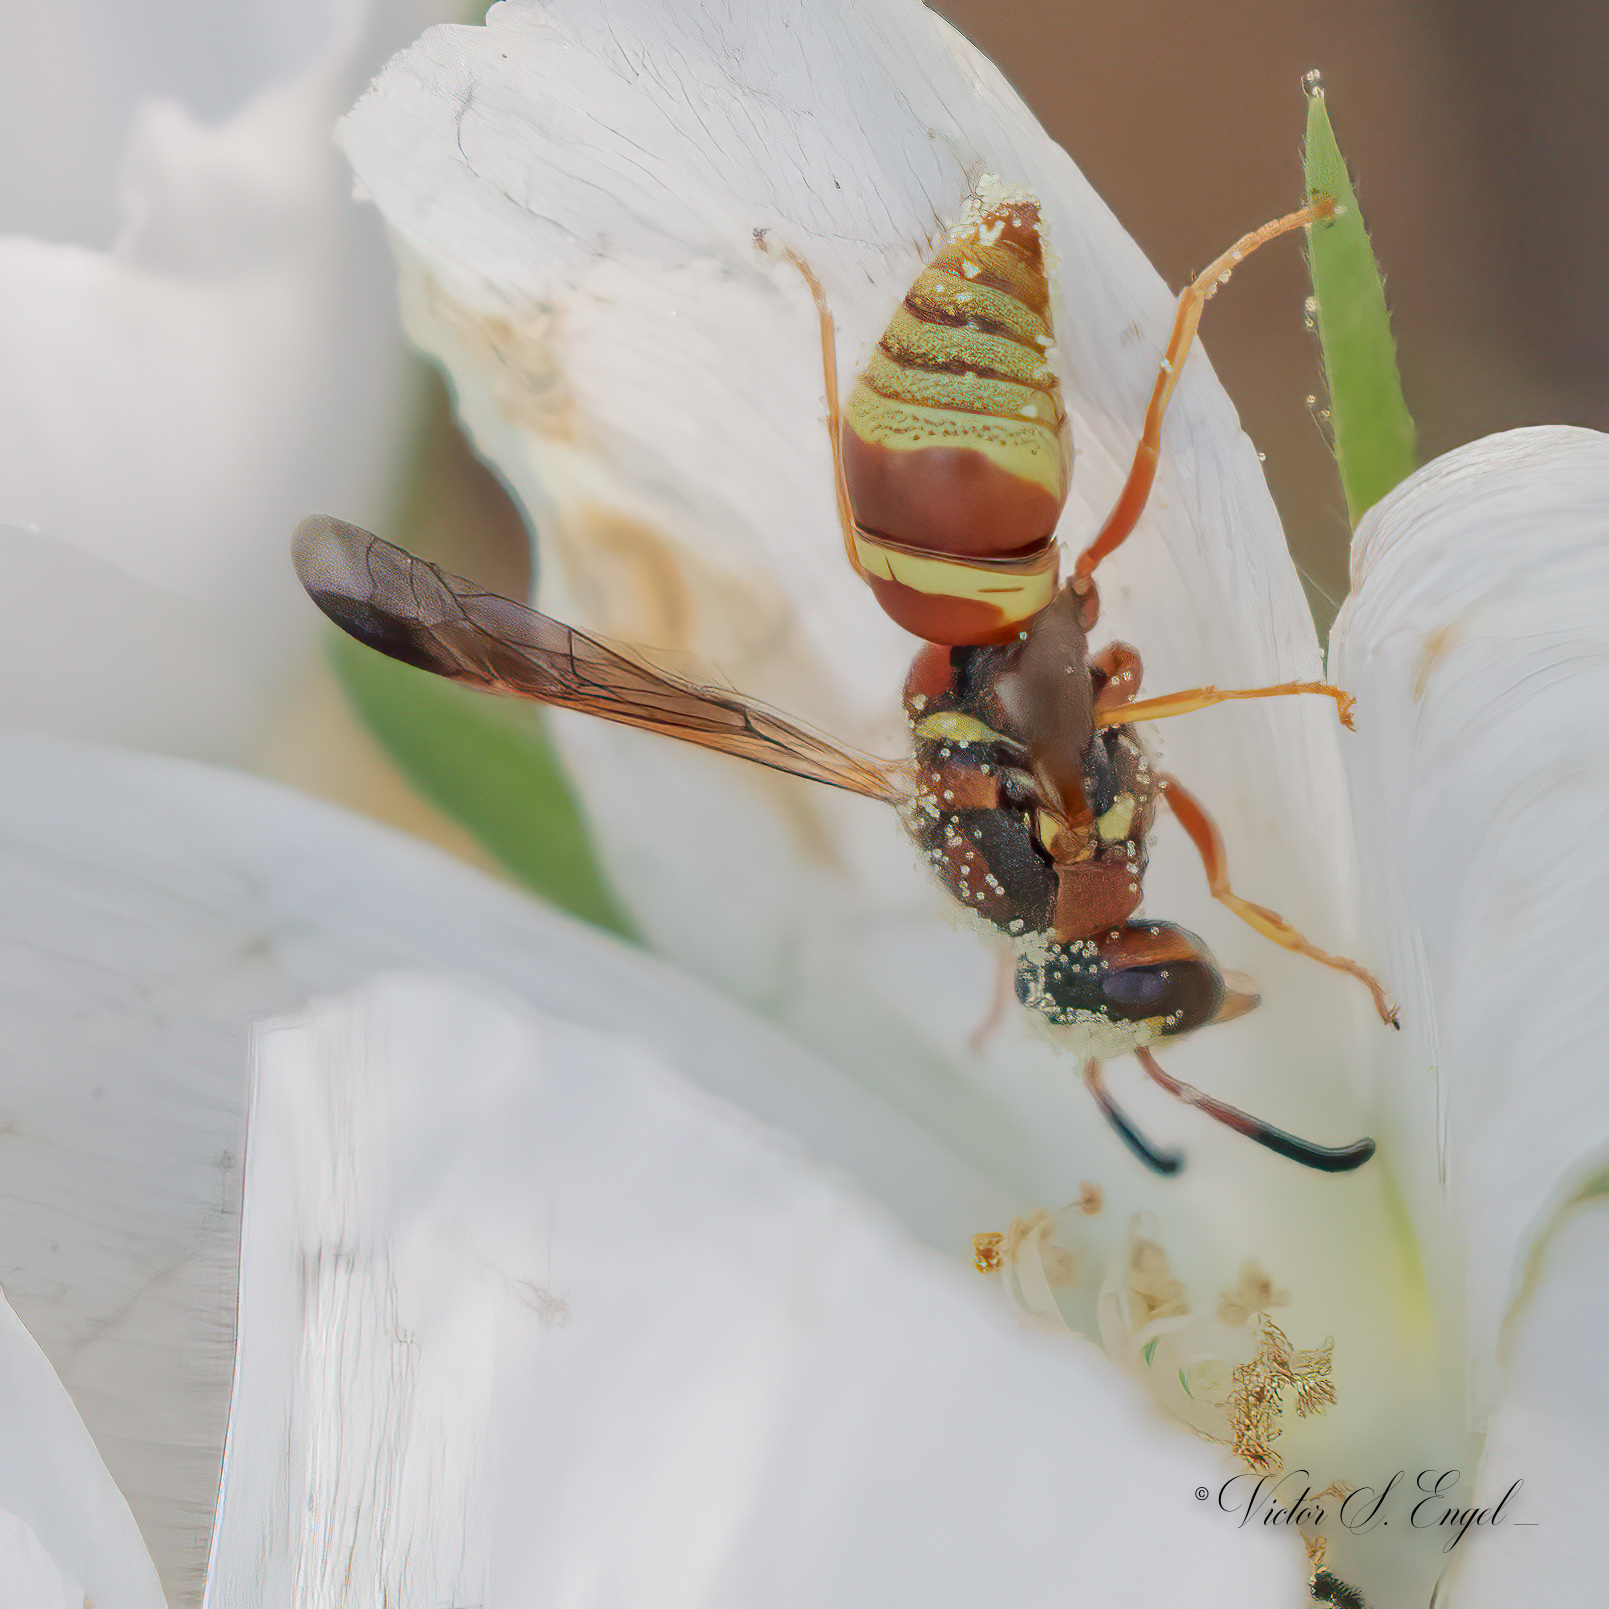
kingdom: Animalia
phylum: Arthropoda
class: Insecta
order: Hymenoptera
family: Eumenidae
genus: Euodynerus
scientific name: Euodynerus pratensis
